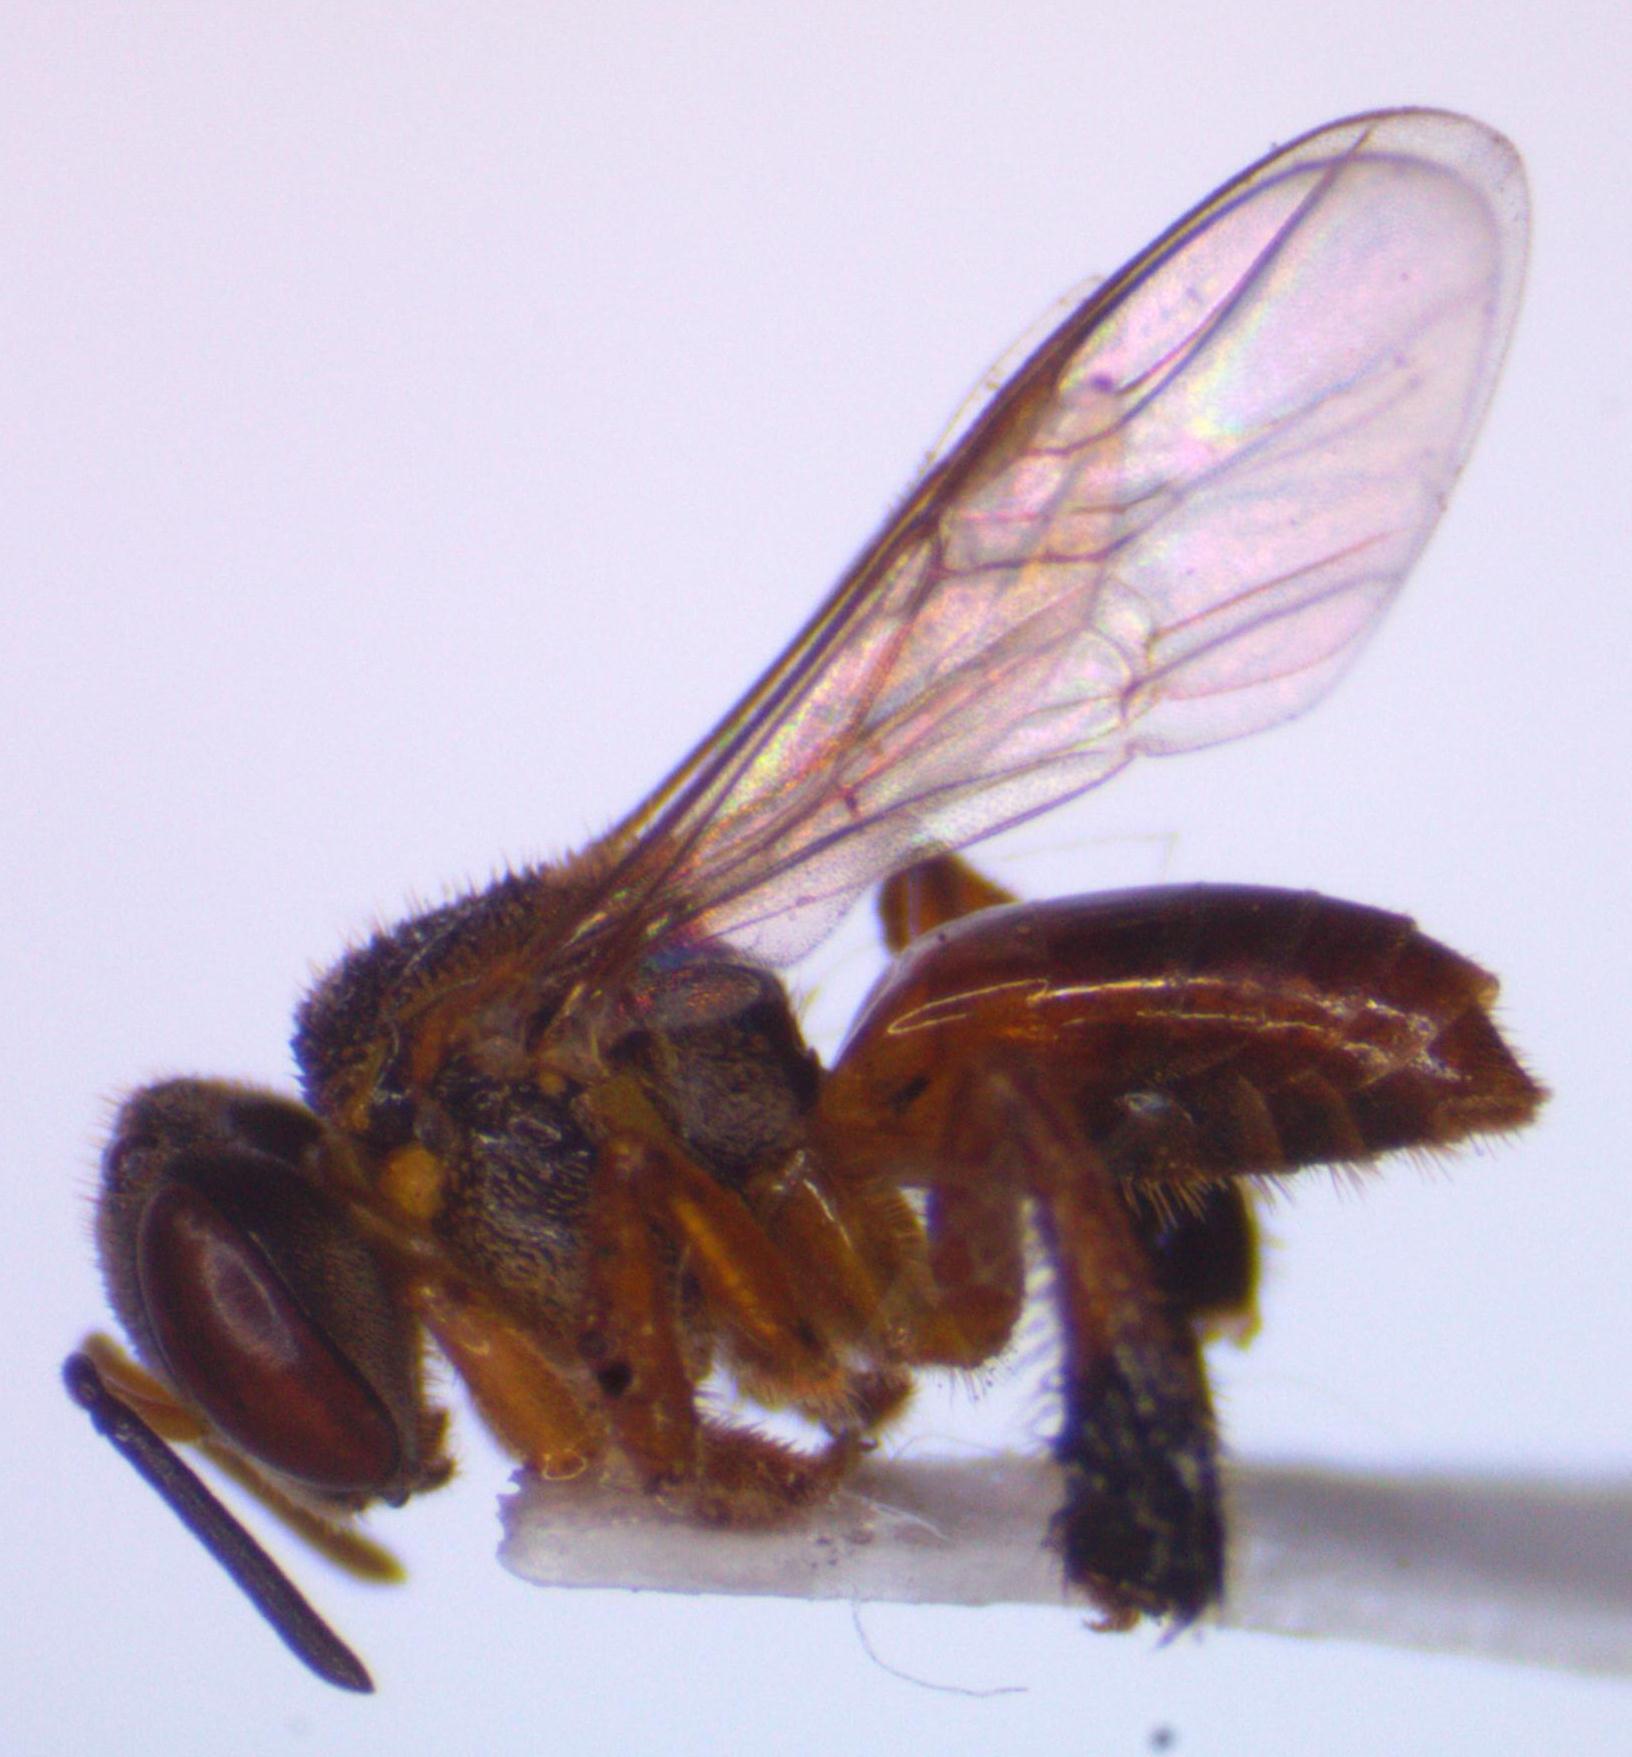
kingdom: Animalia
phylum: Arthropoda
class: Insecta
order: Hymenoptera
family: Apidae
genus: Tetragonisca
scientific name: Tetragonisca angustula
